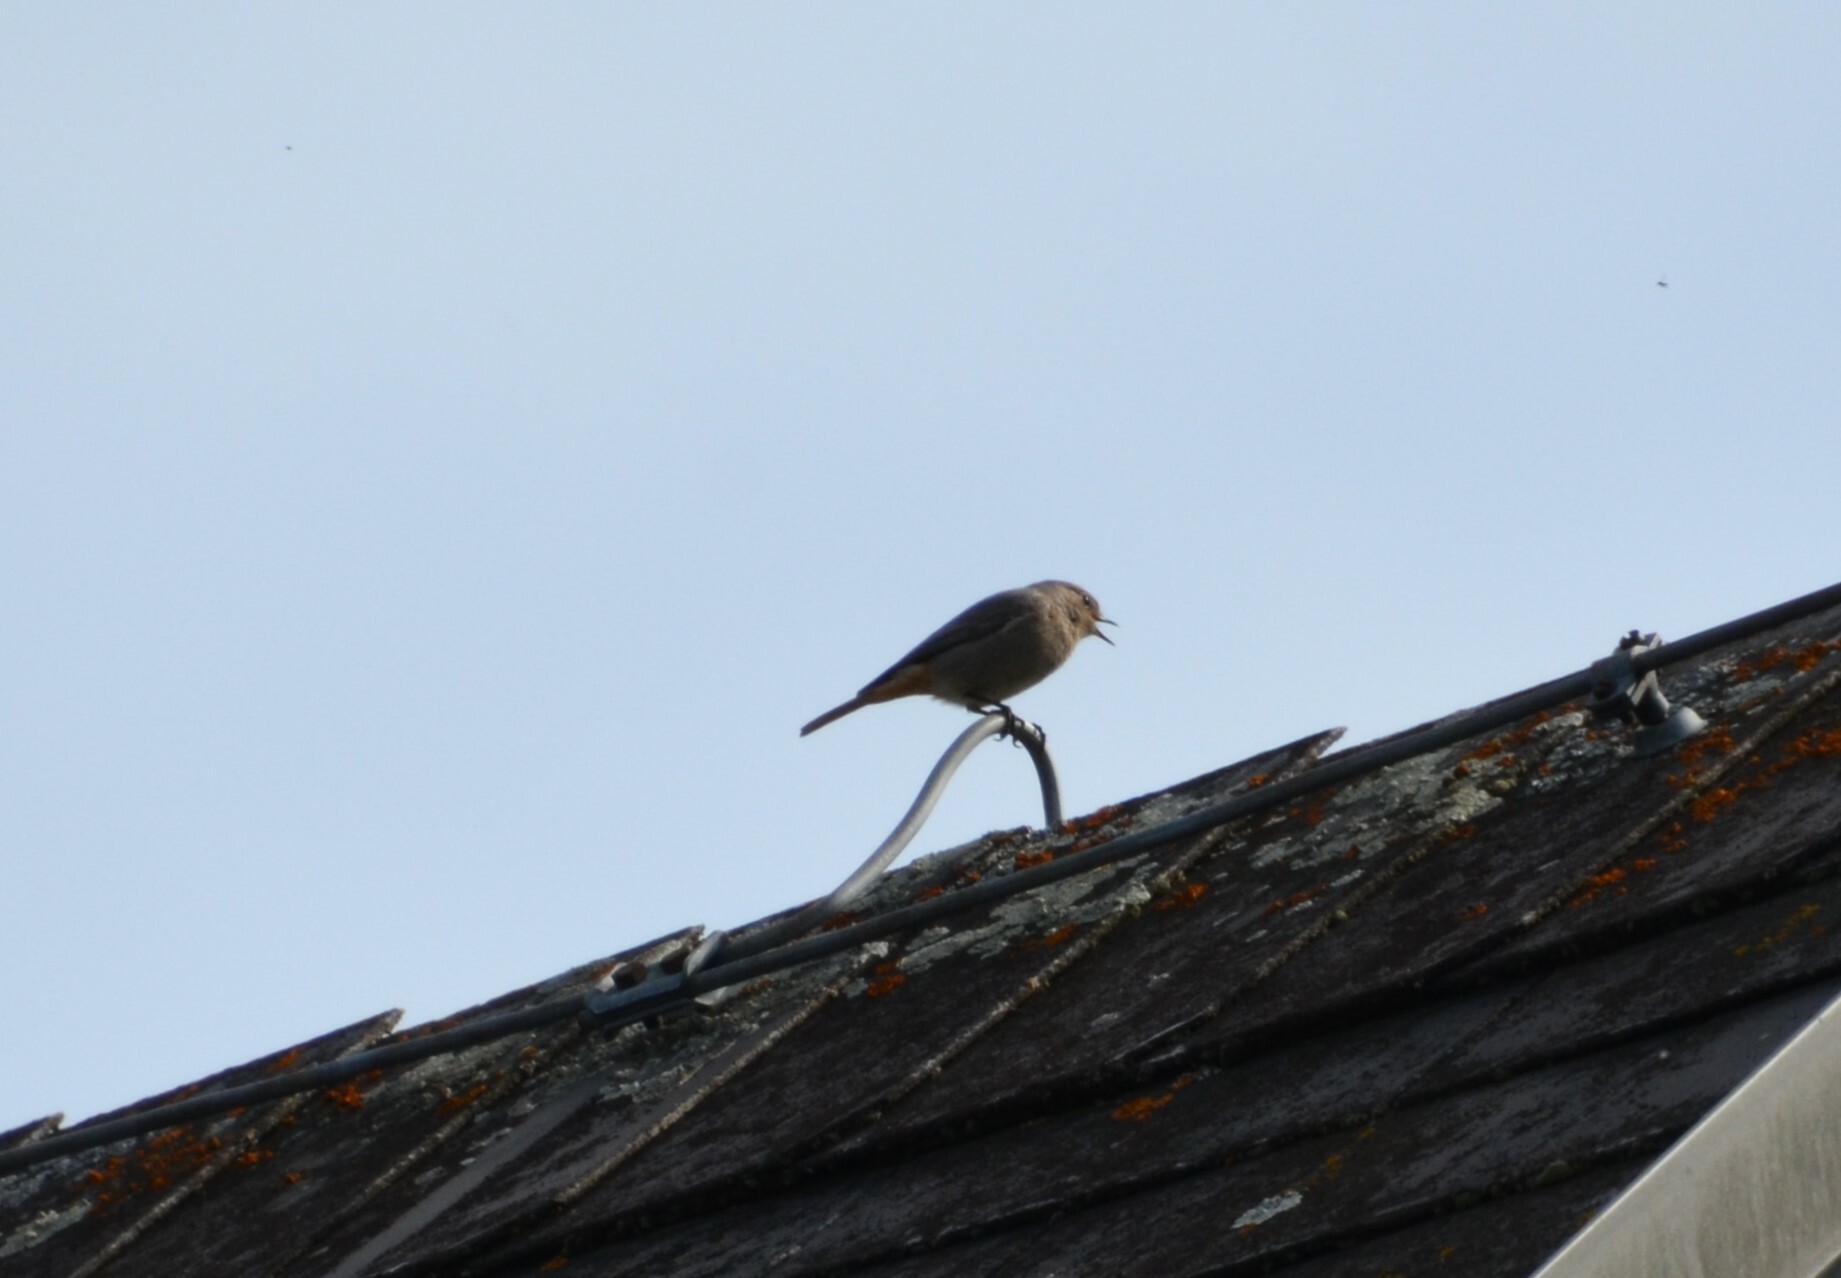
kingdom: Animalia
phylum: Chordata
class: Aves
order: Passeriformes
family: Muscicapidae
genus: Phoenicurus
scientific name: Phoenicurus ochruros
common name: Black redstart
